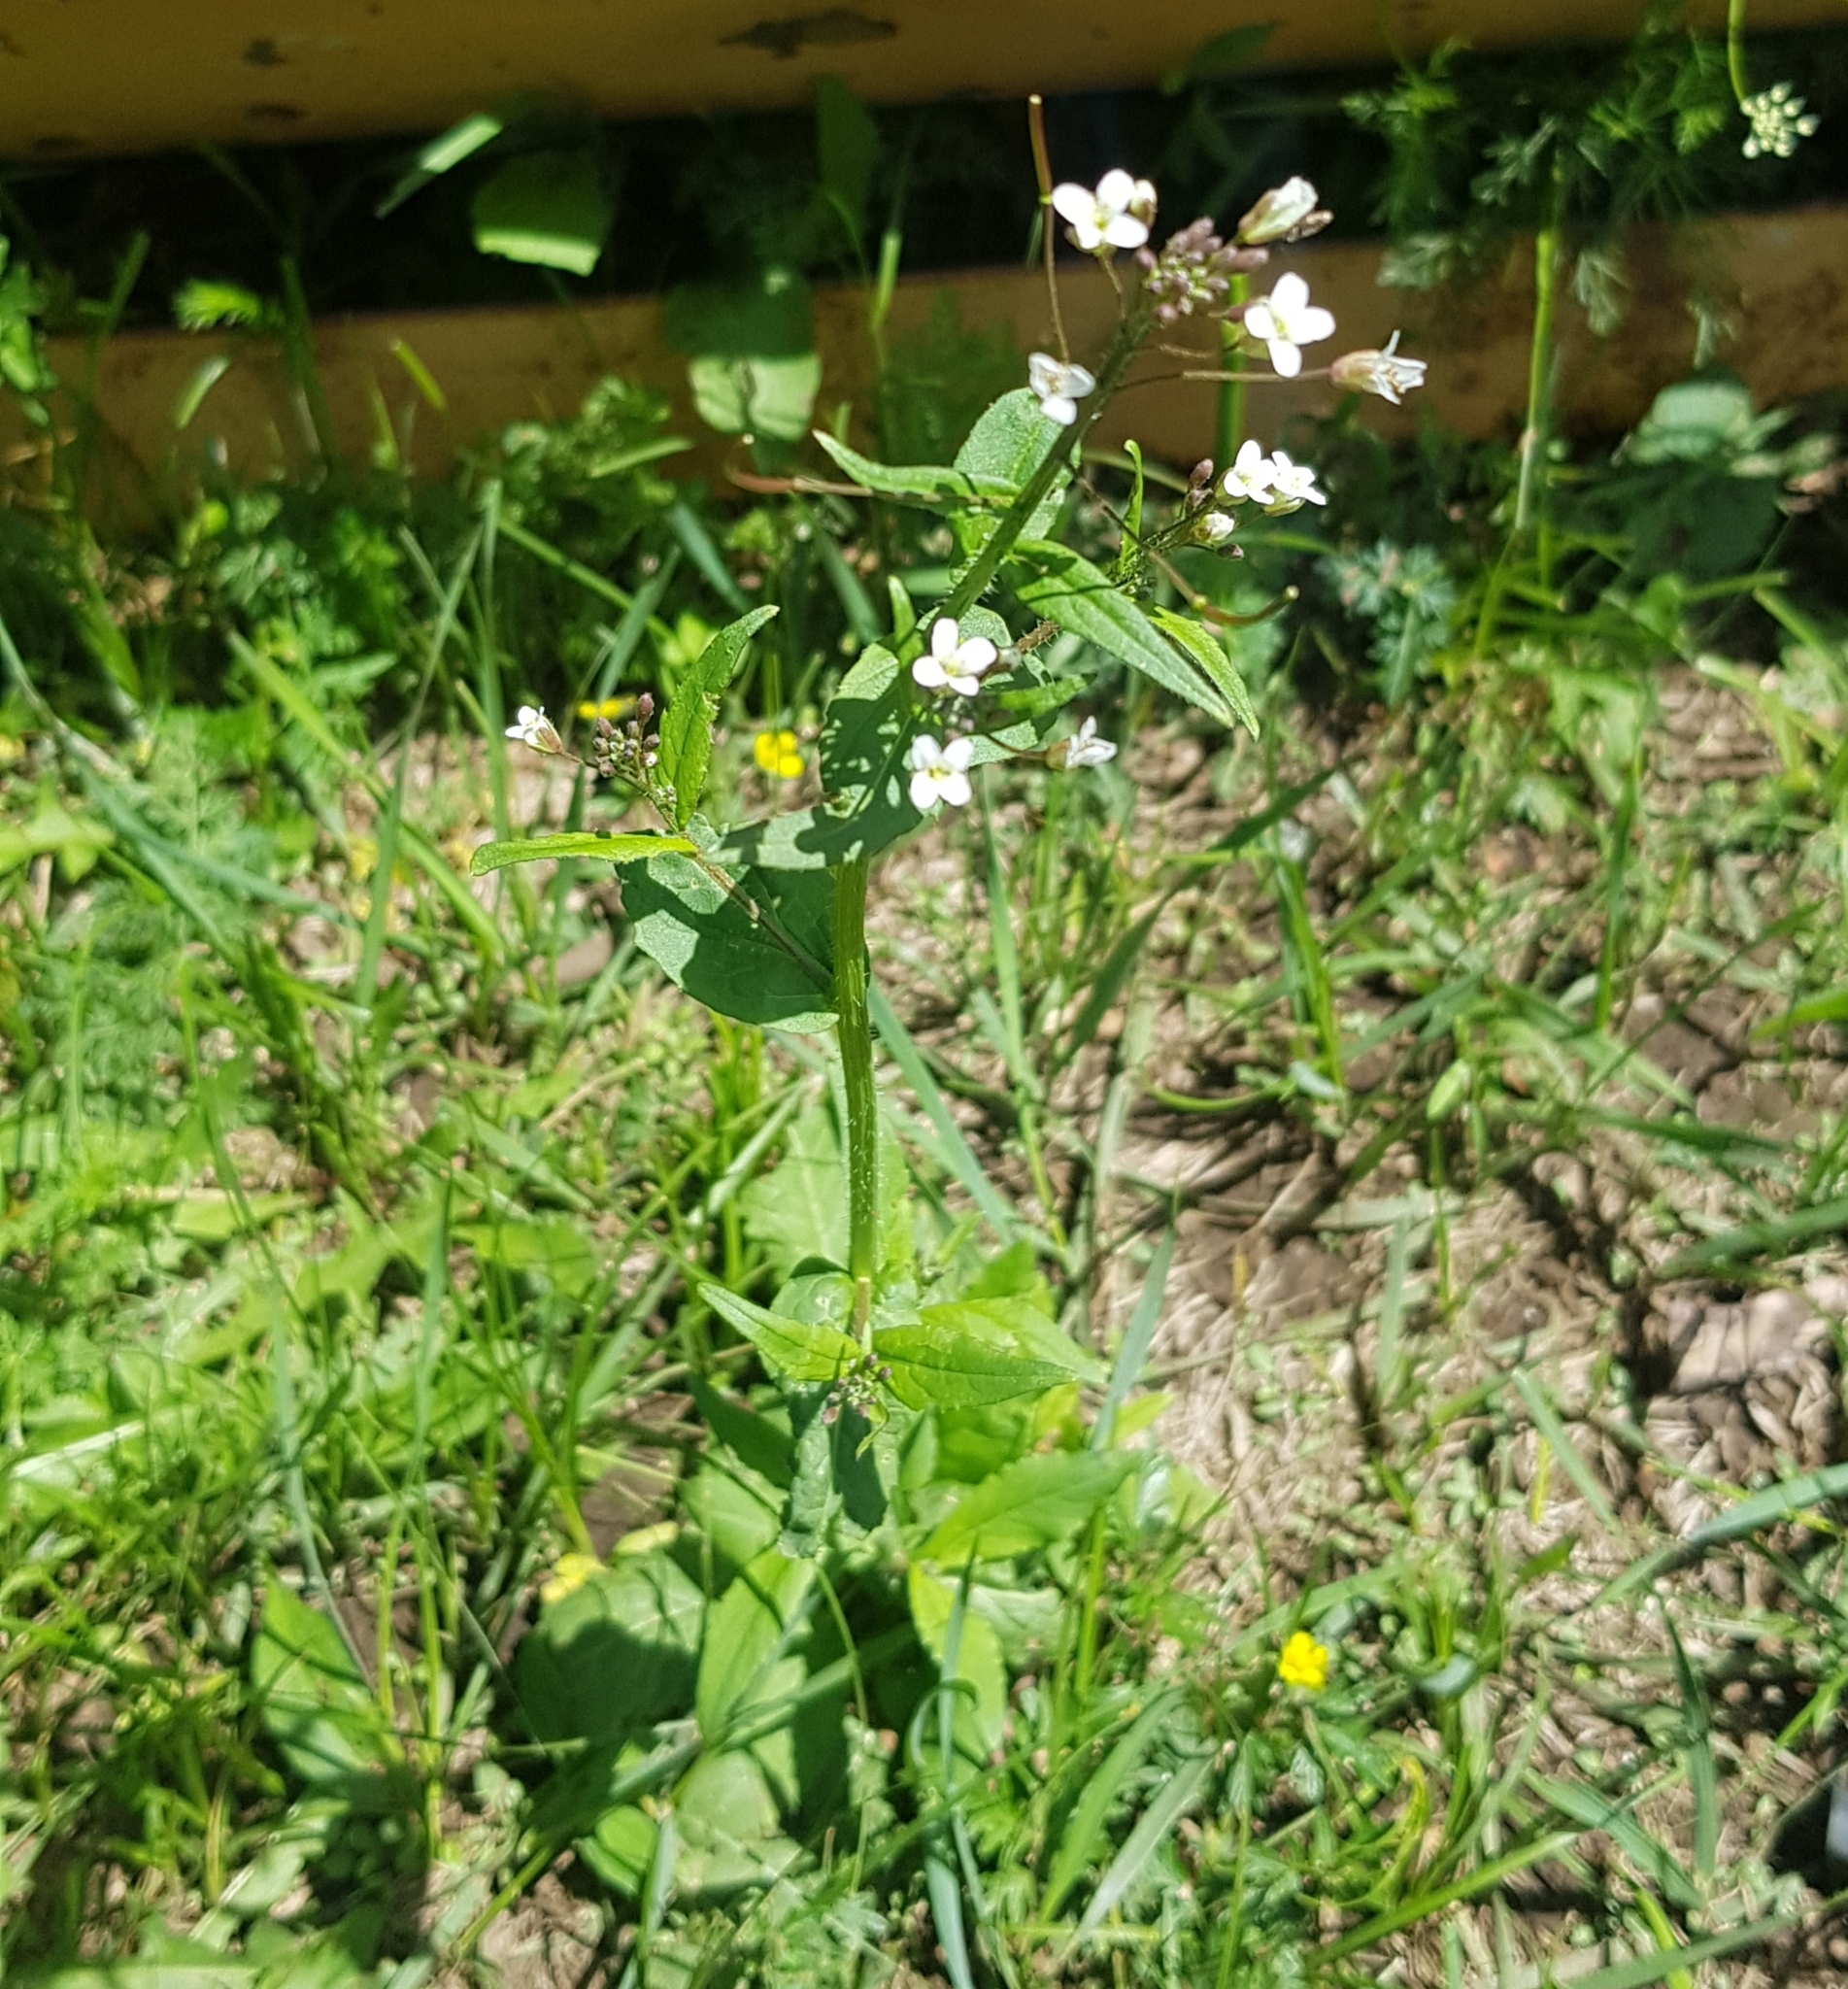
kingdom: Plantae
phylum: Tracheophyta
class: Magnoliopsida
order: Brassicales
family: Brassicaceae
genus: Catolobus
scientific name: Catolobus pendulus
